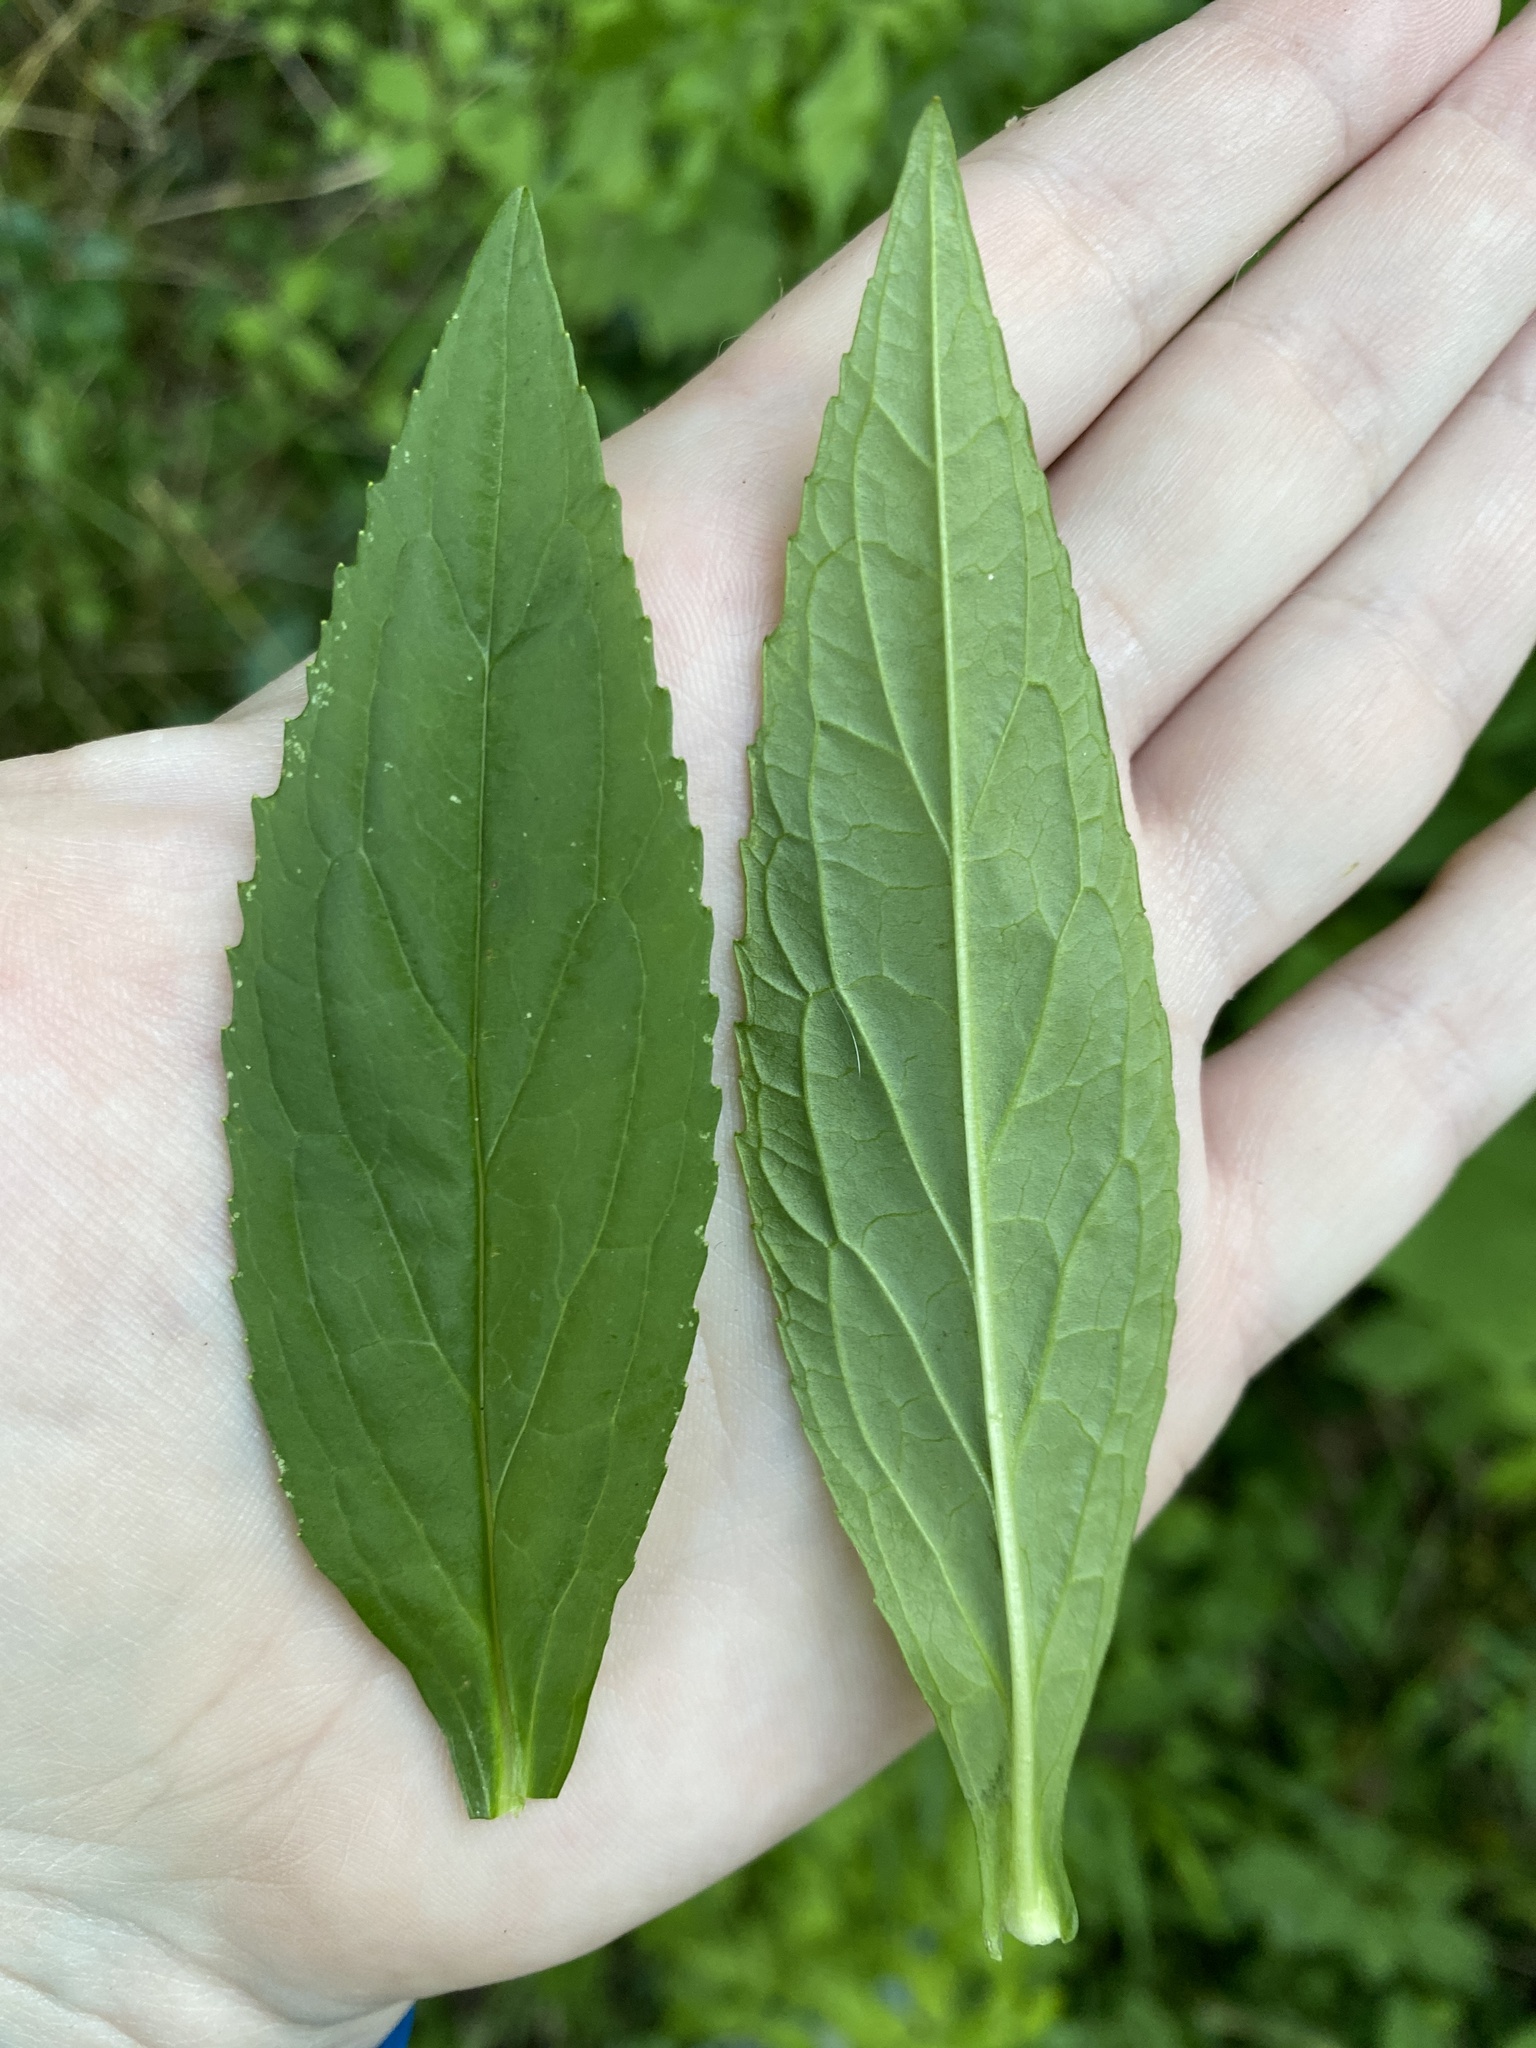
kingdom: Plantae
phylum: Tracheophyta
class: Magnoliopsida
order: Lamiales
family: Phrymaceae
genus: Mimulus
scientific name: Mimulus ringens
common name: Allegheny monkeyflower
